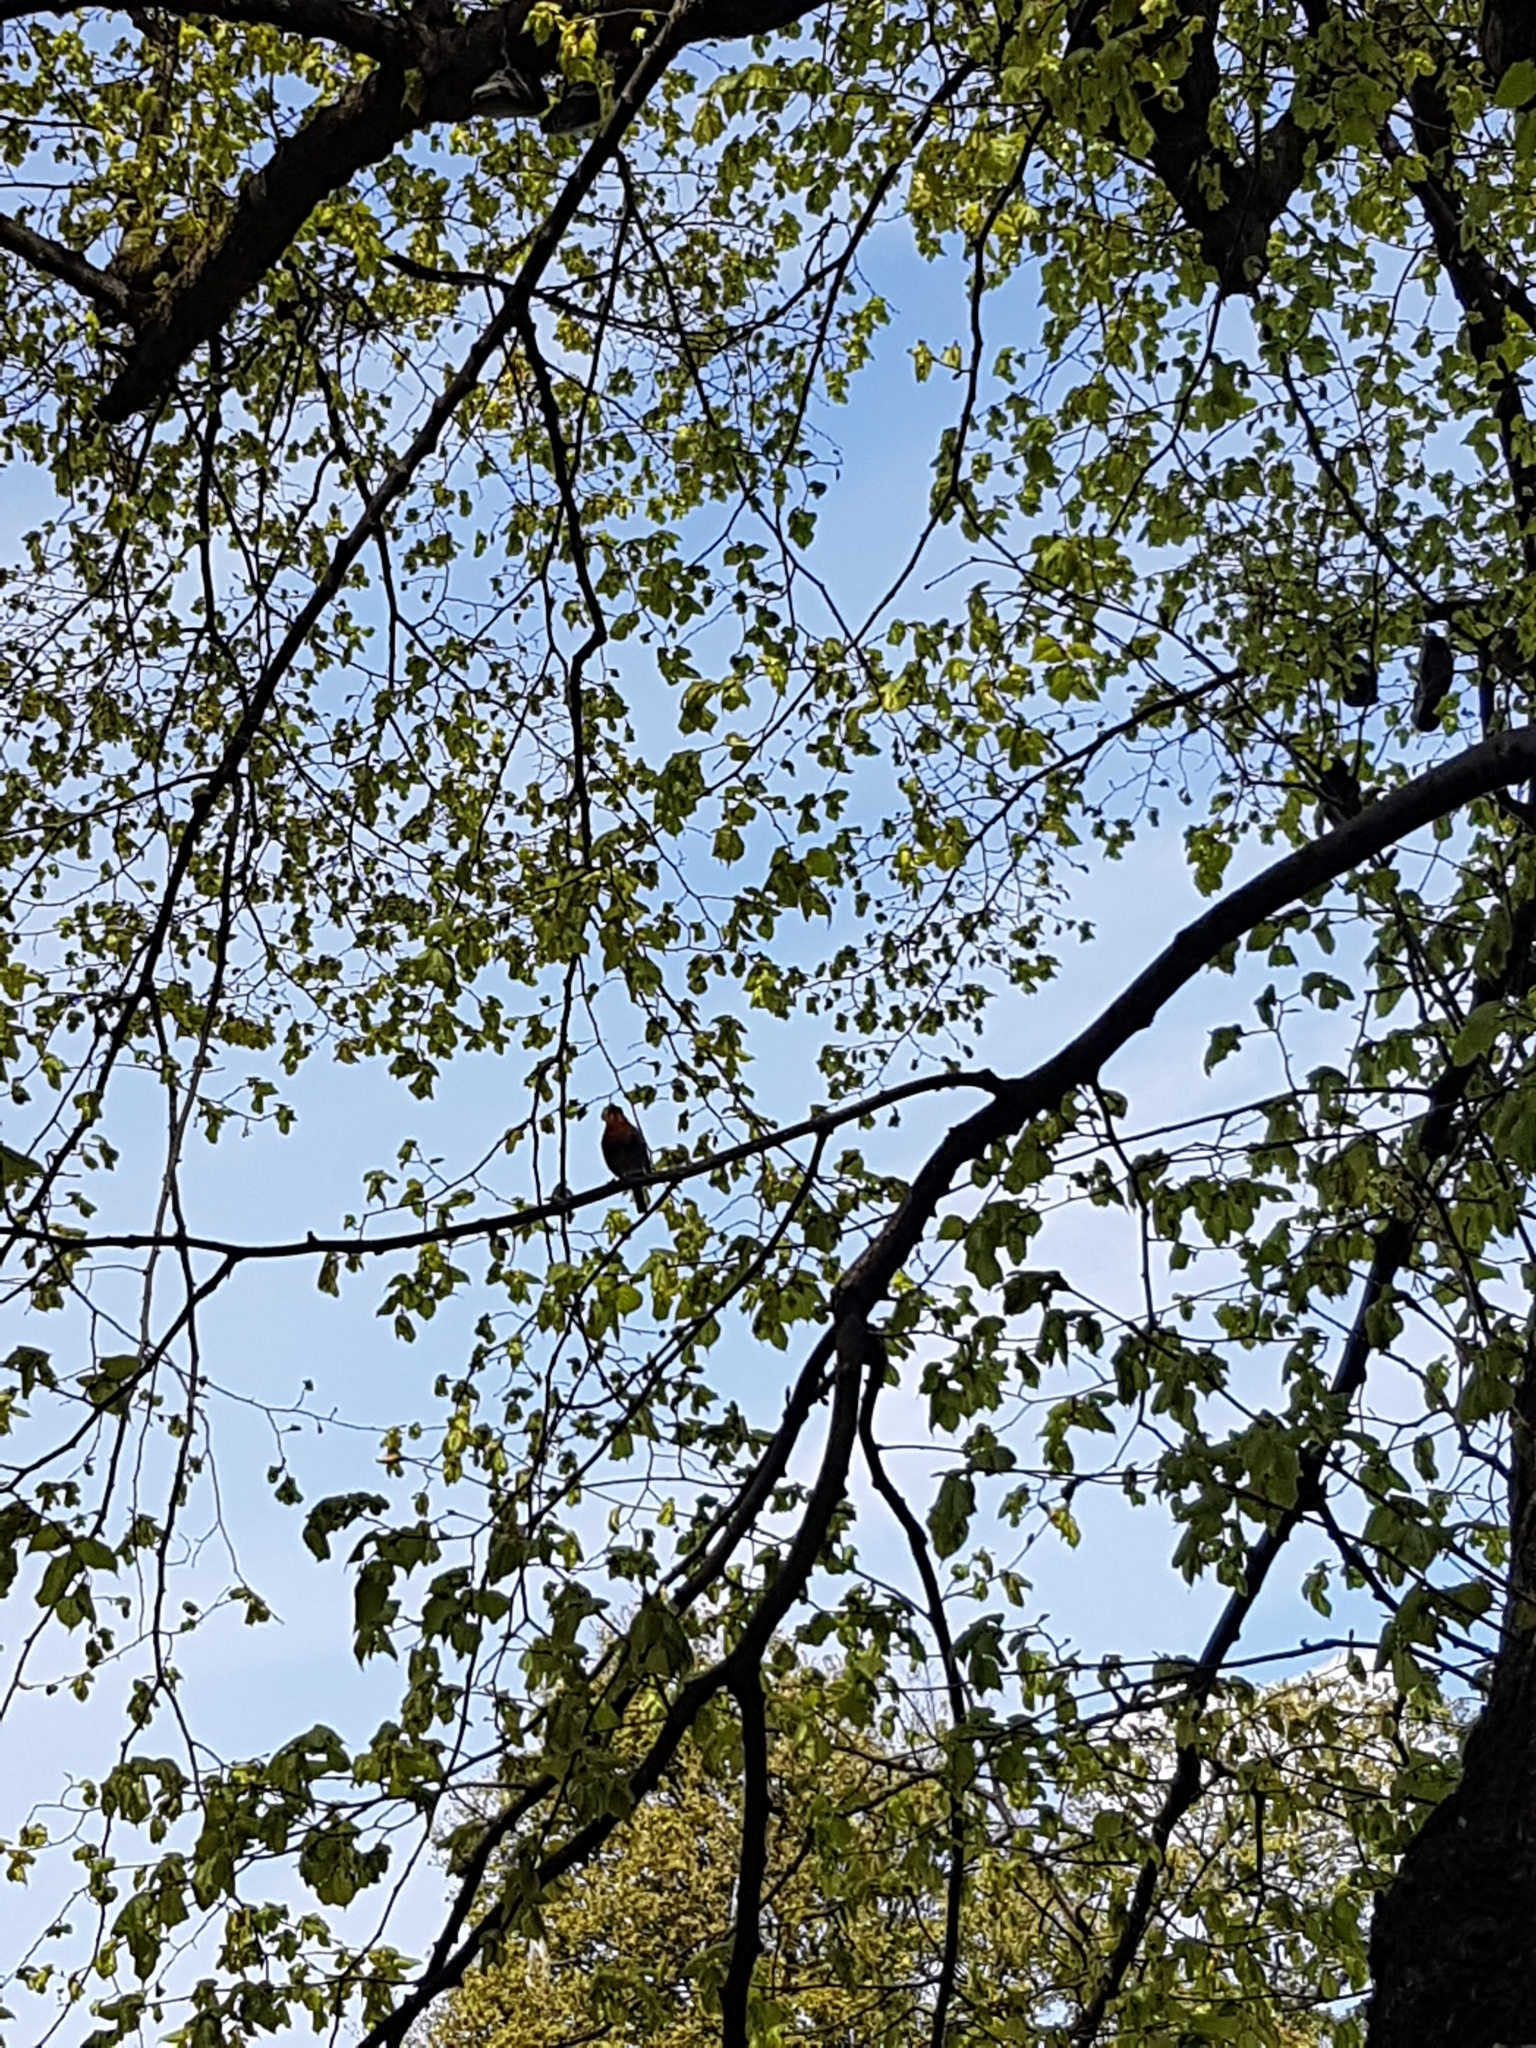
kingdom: Animalia
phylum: Chordata
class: Aves
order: Passeriformes
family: Muscicapidae
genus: Erithacus
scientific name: Erithacus rubecula
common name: European robin
